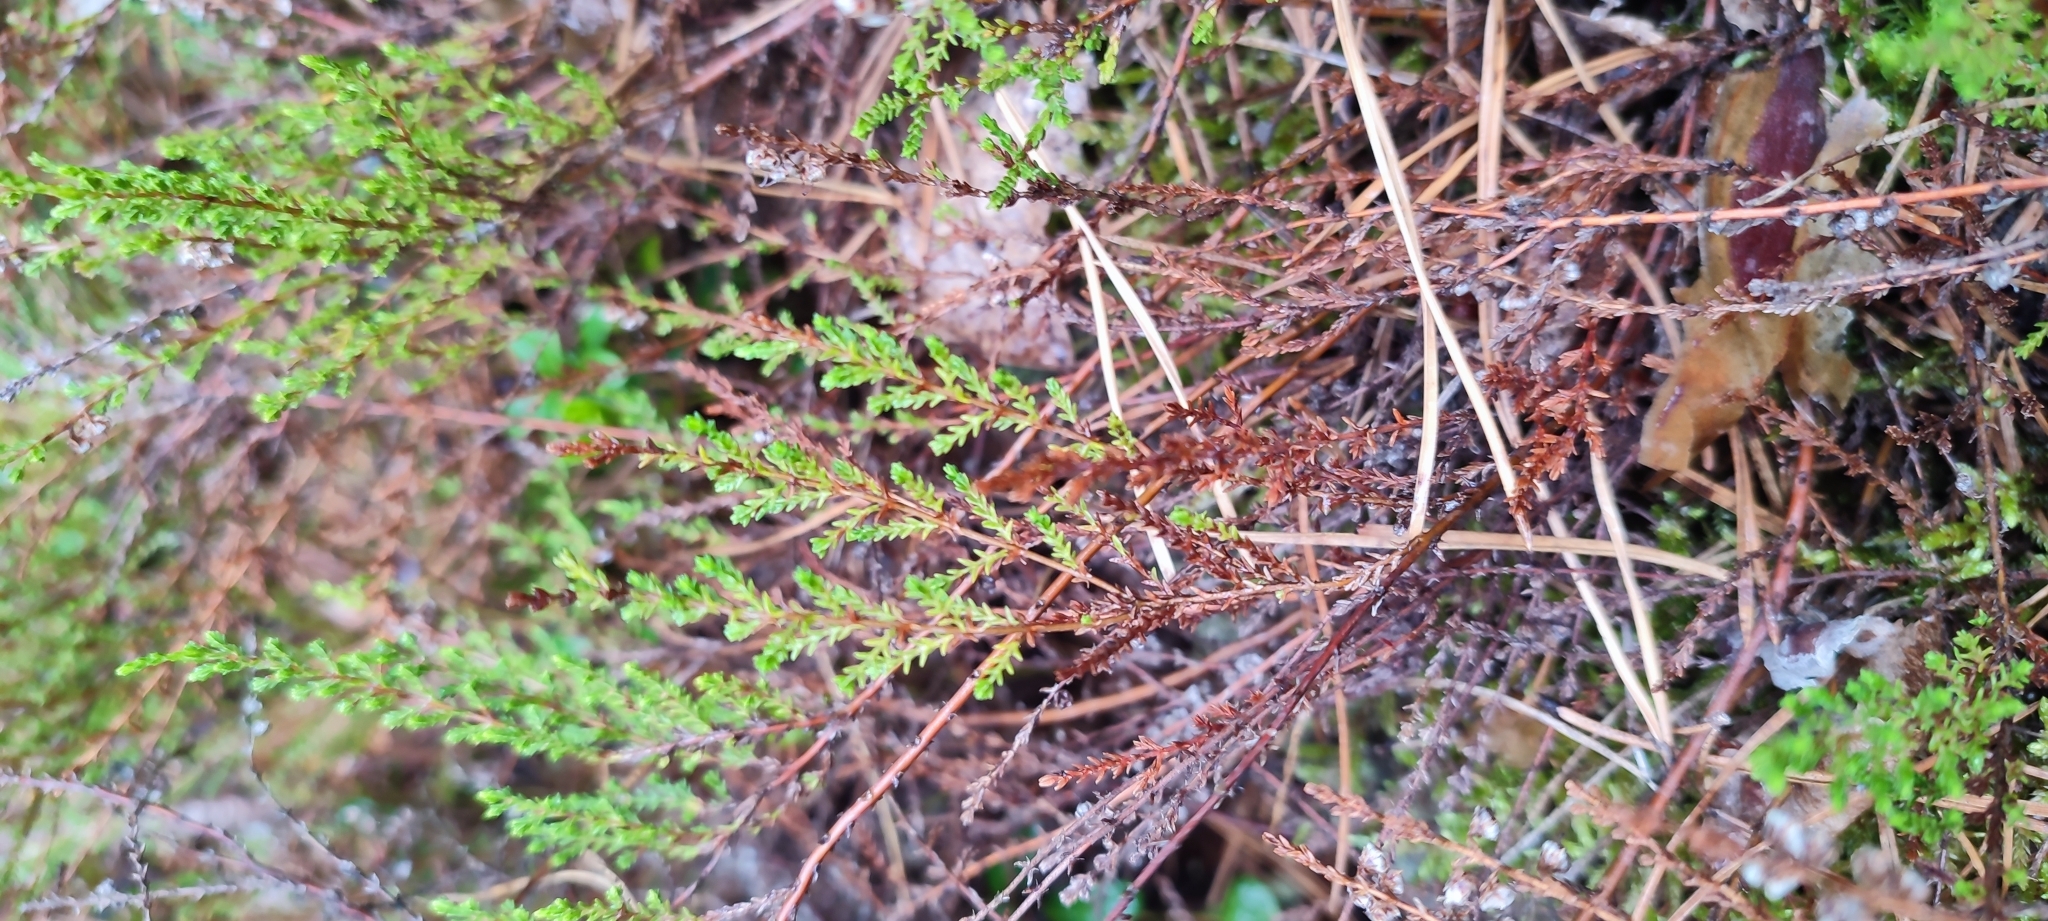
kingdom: Plantae
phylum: Tracheophyta
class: Magnoliopsida
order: Ericales
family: Ericaceae
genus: Calluna
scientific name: Calluna vulgaris
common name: Heather
